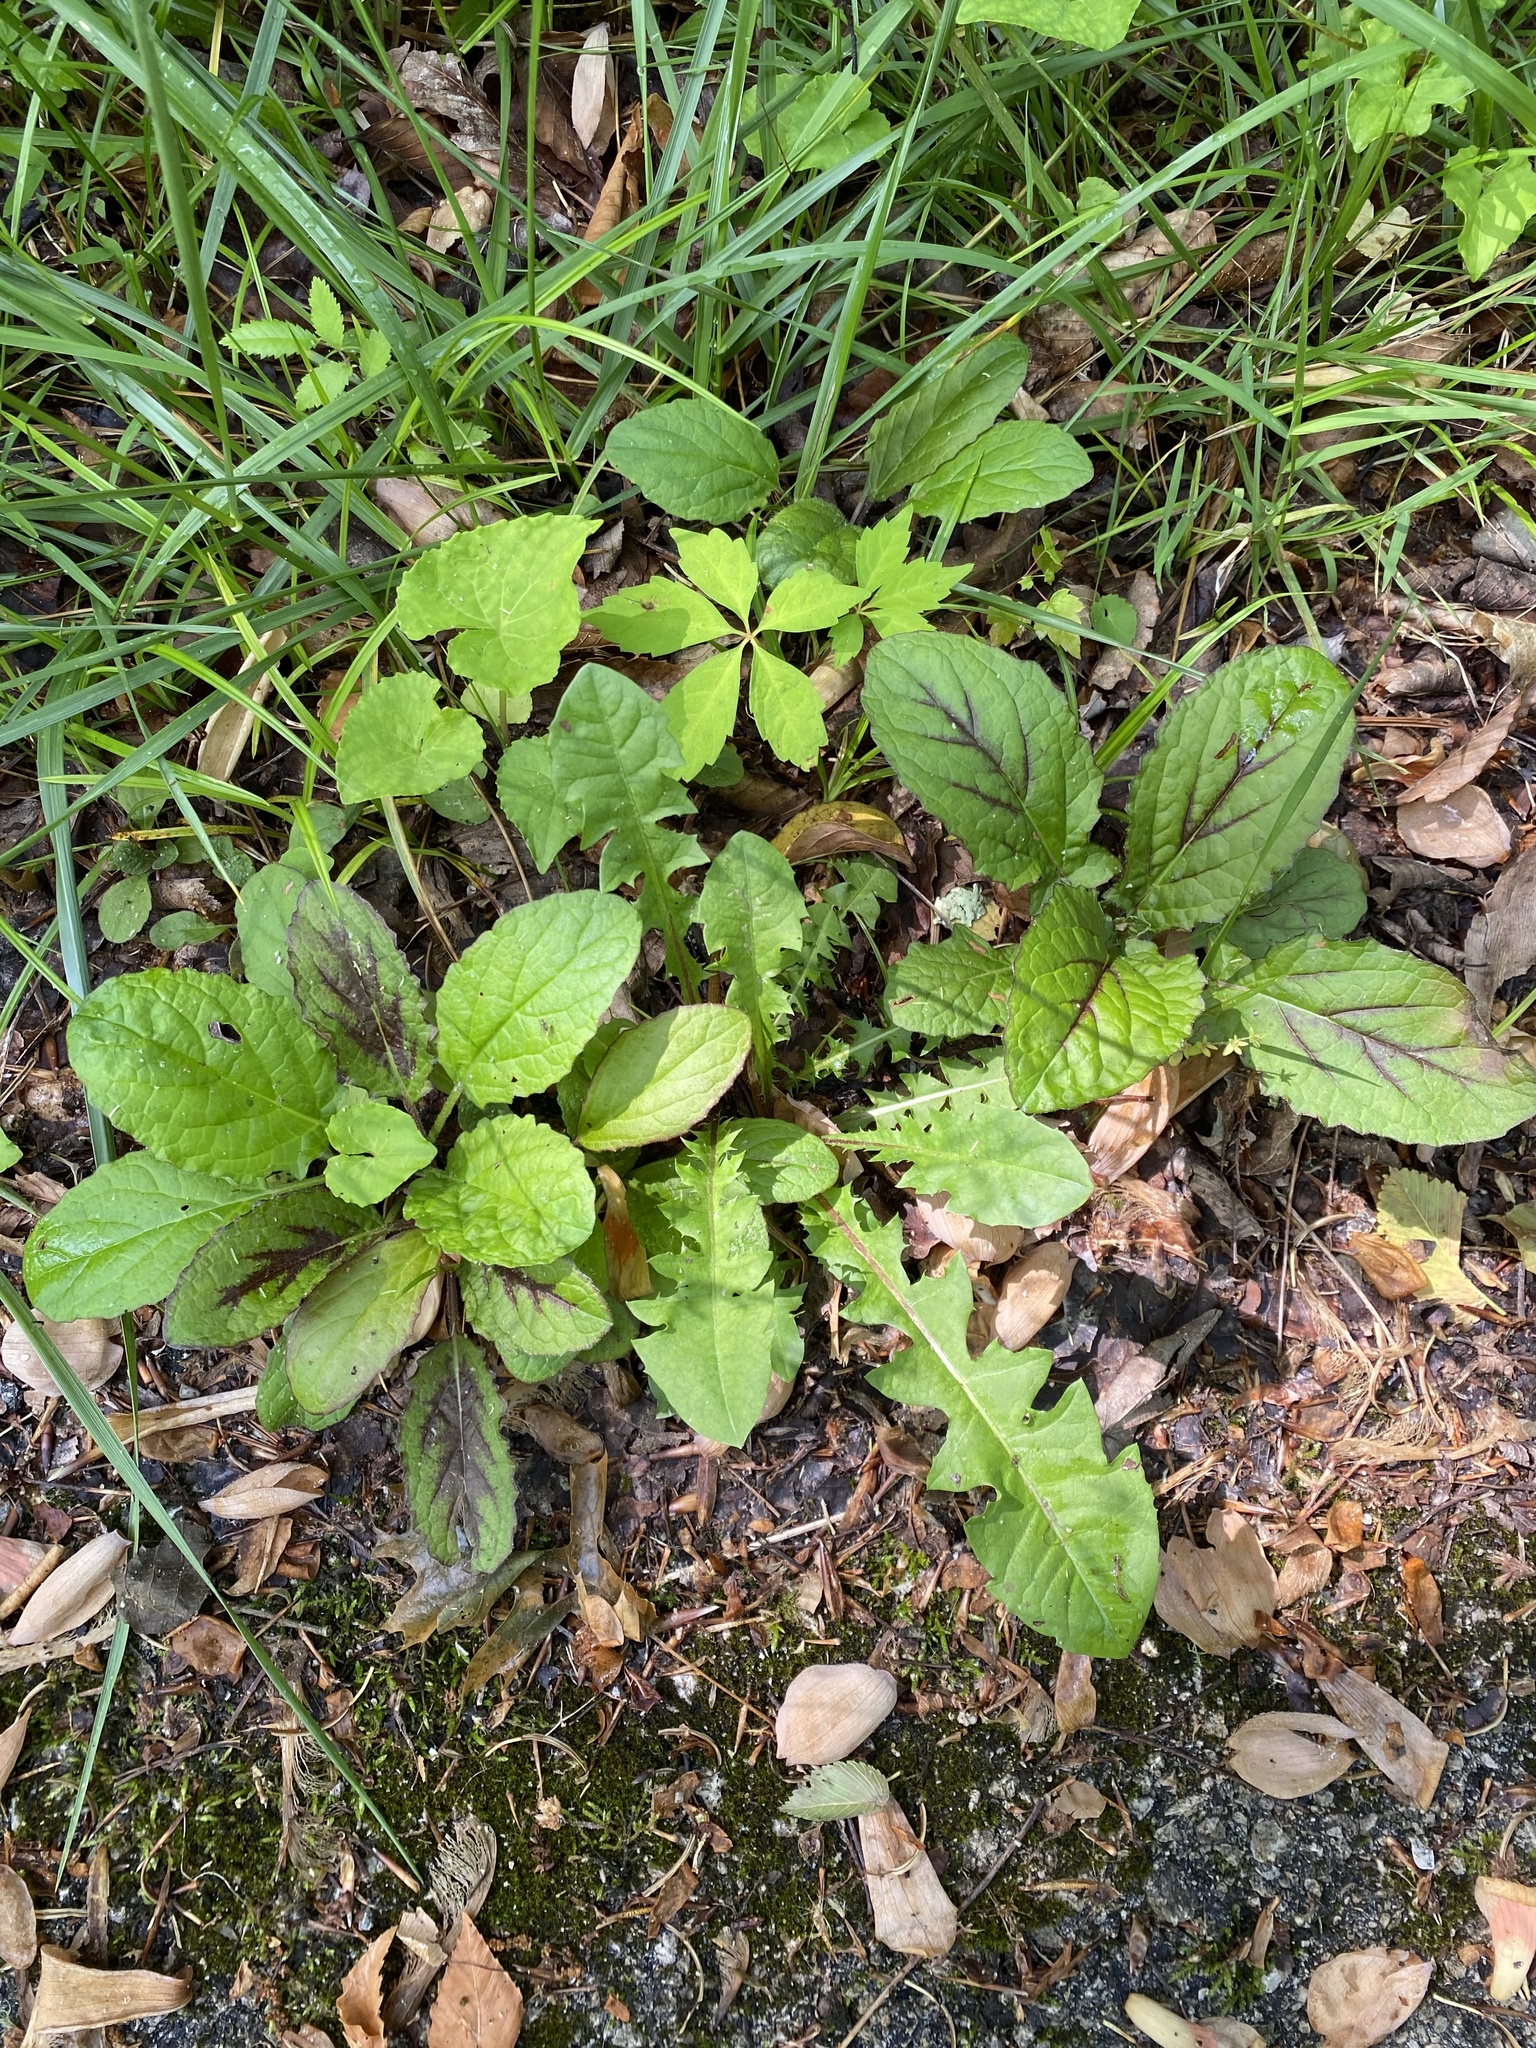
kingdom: Plantae
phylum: Tracheophyta
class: Magnoliopsida
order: Lamiales
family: Lamiaceae
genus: Salvia
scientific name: Salvia lyrata
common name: Cancerweed
